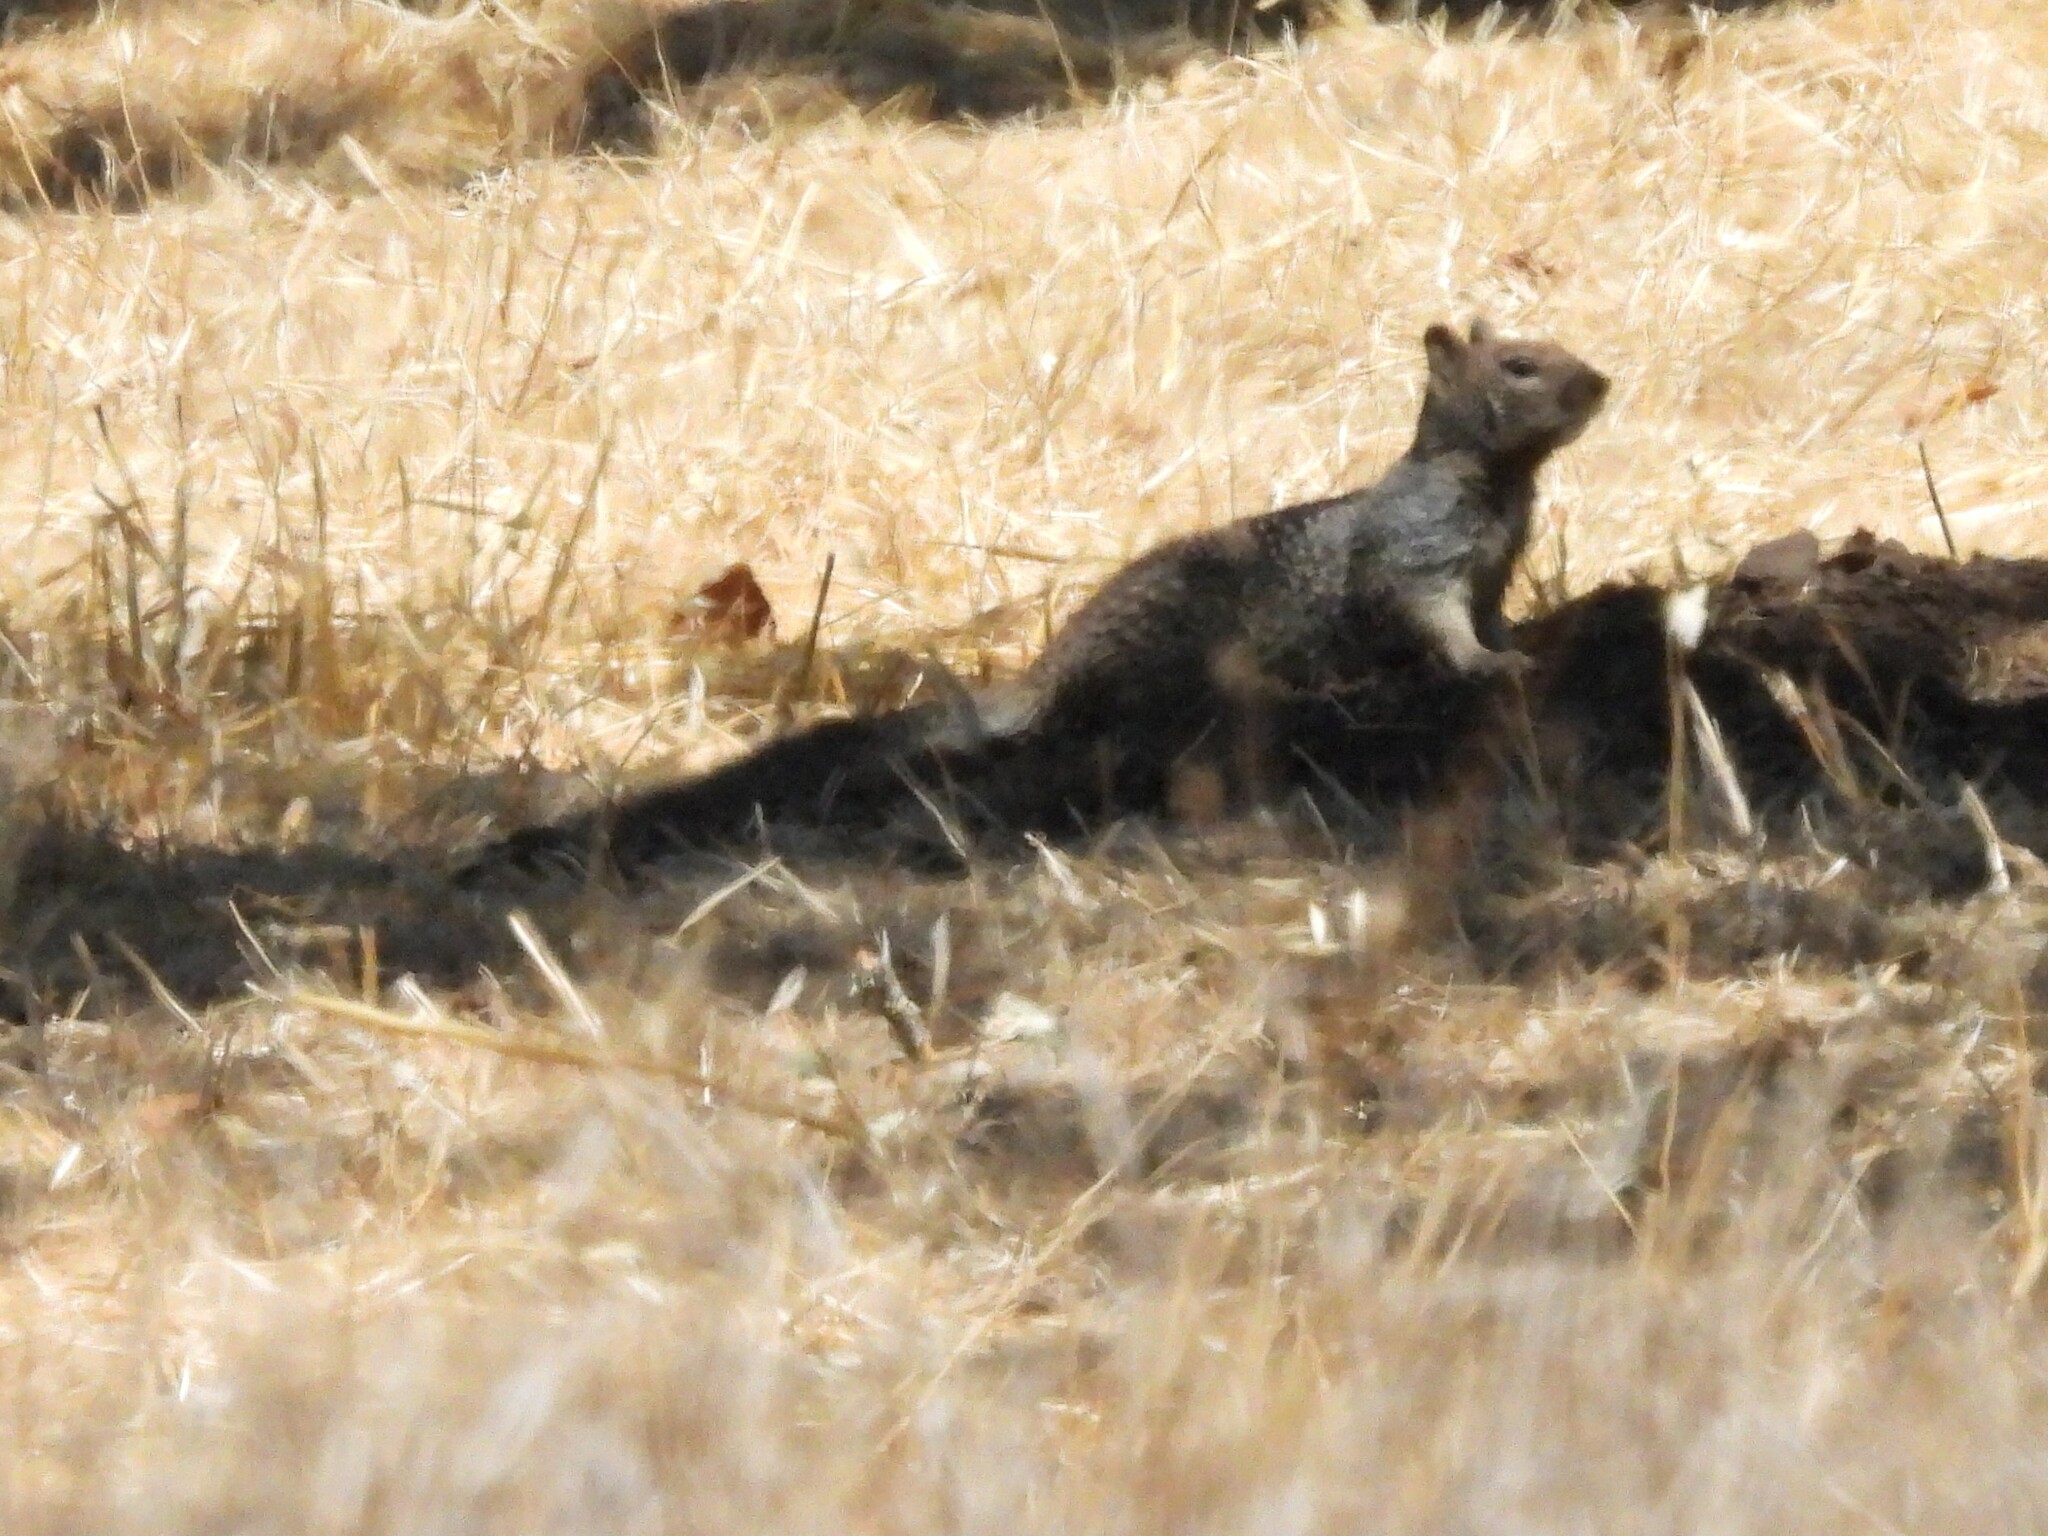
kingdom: Animalia
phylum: Chordata
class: Mammalia
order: Rodentia
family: Sciuridae
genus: Otospermophilus
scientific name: Otospermophilus beecheyi
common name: California ground squirrel
